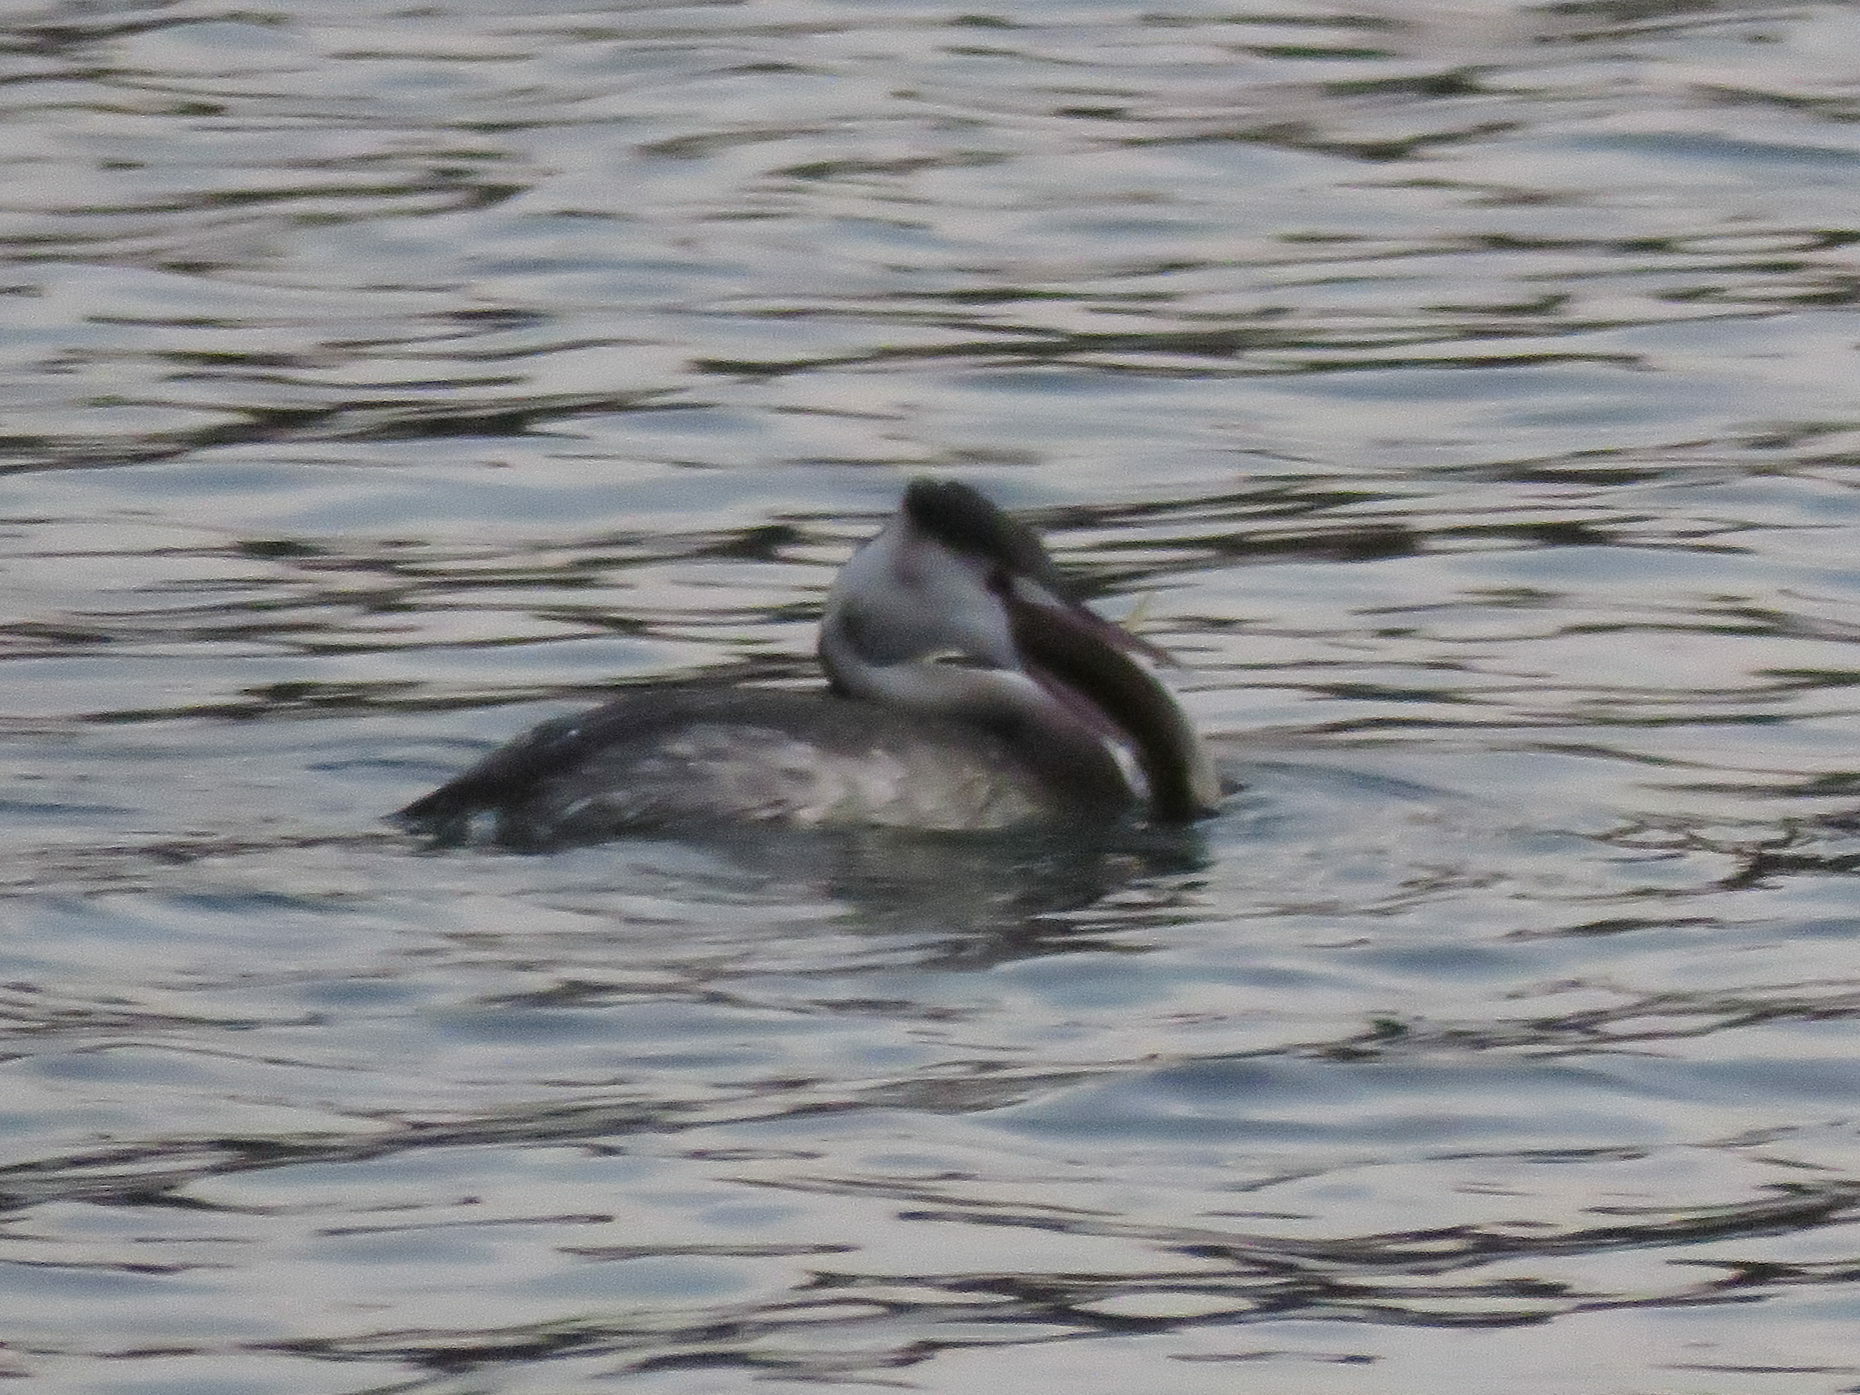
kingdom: Animalia
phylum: Chordata
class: Aves
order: Podicipediformes
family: Podicipedidae
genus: Podiceps
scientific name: Podiceps cristatus
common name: Great crested grebe
